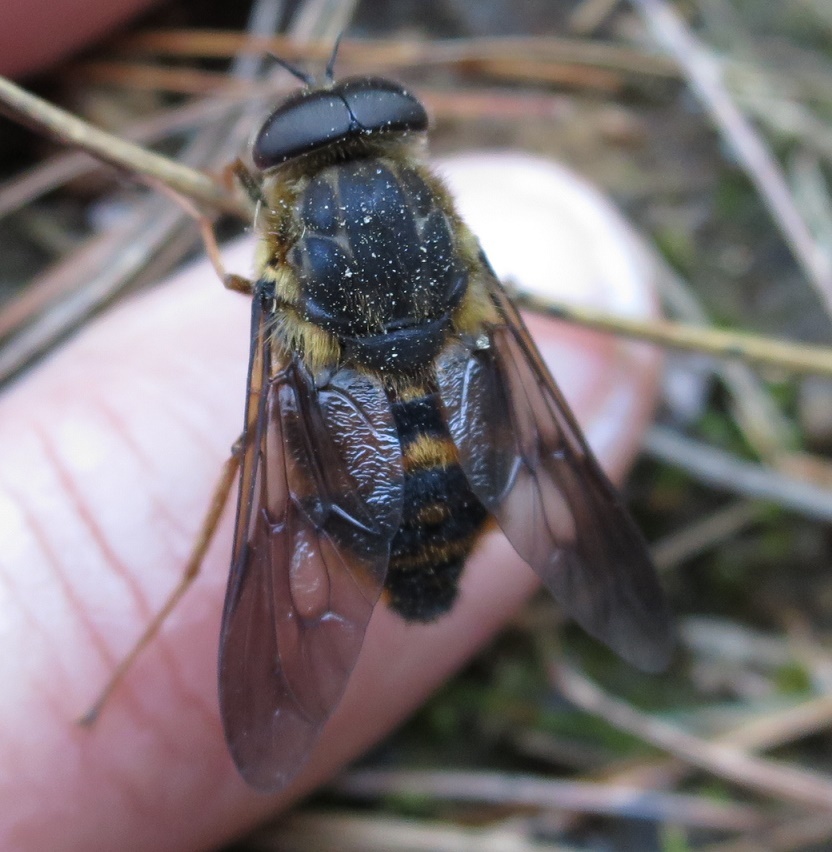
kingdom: Animalia
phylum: Arthropoda
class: Insecta
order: Diptera
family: Tabanidae
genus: Scaptia
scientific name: Scaptia
